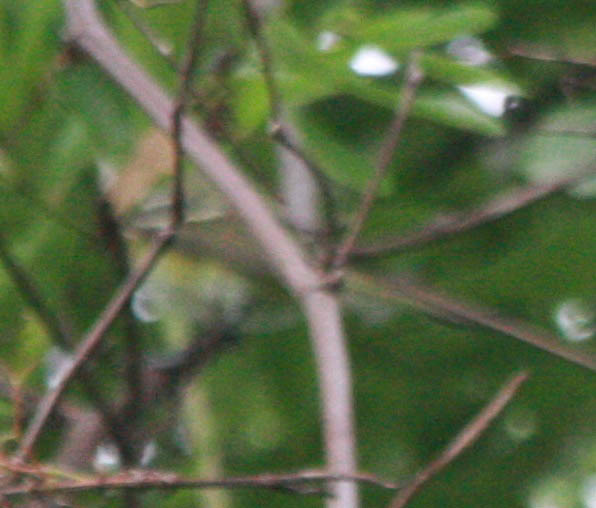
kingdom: Animalia
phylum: Chordata
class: Aves
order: Passeriformes
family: Vireonidae
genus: Vireo
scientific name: Vireo griseus
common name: White-eyed vireo
